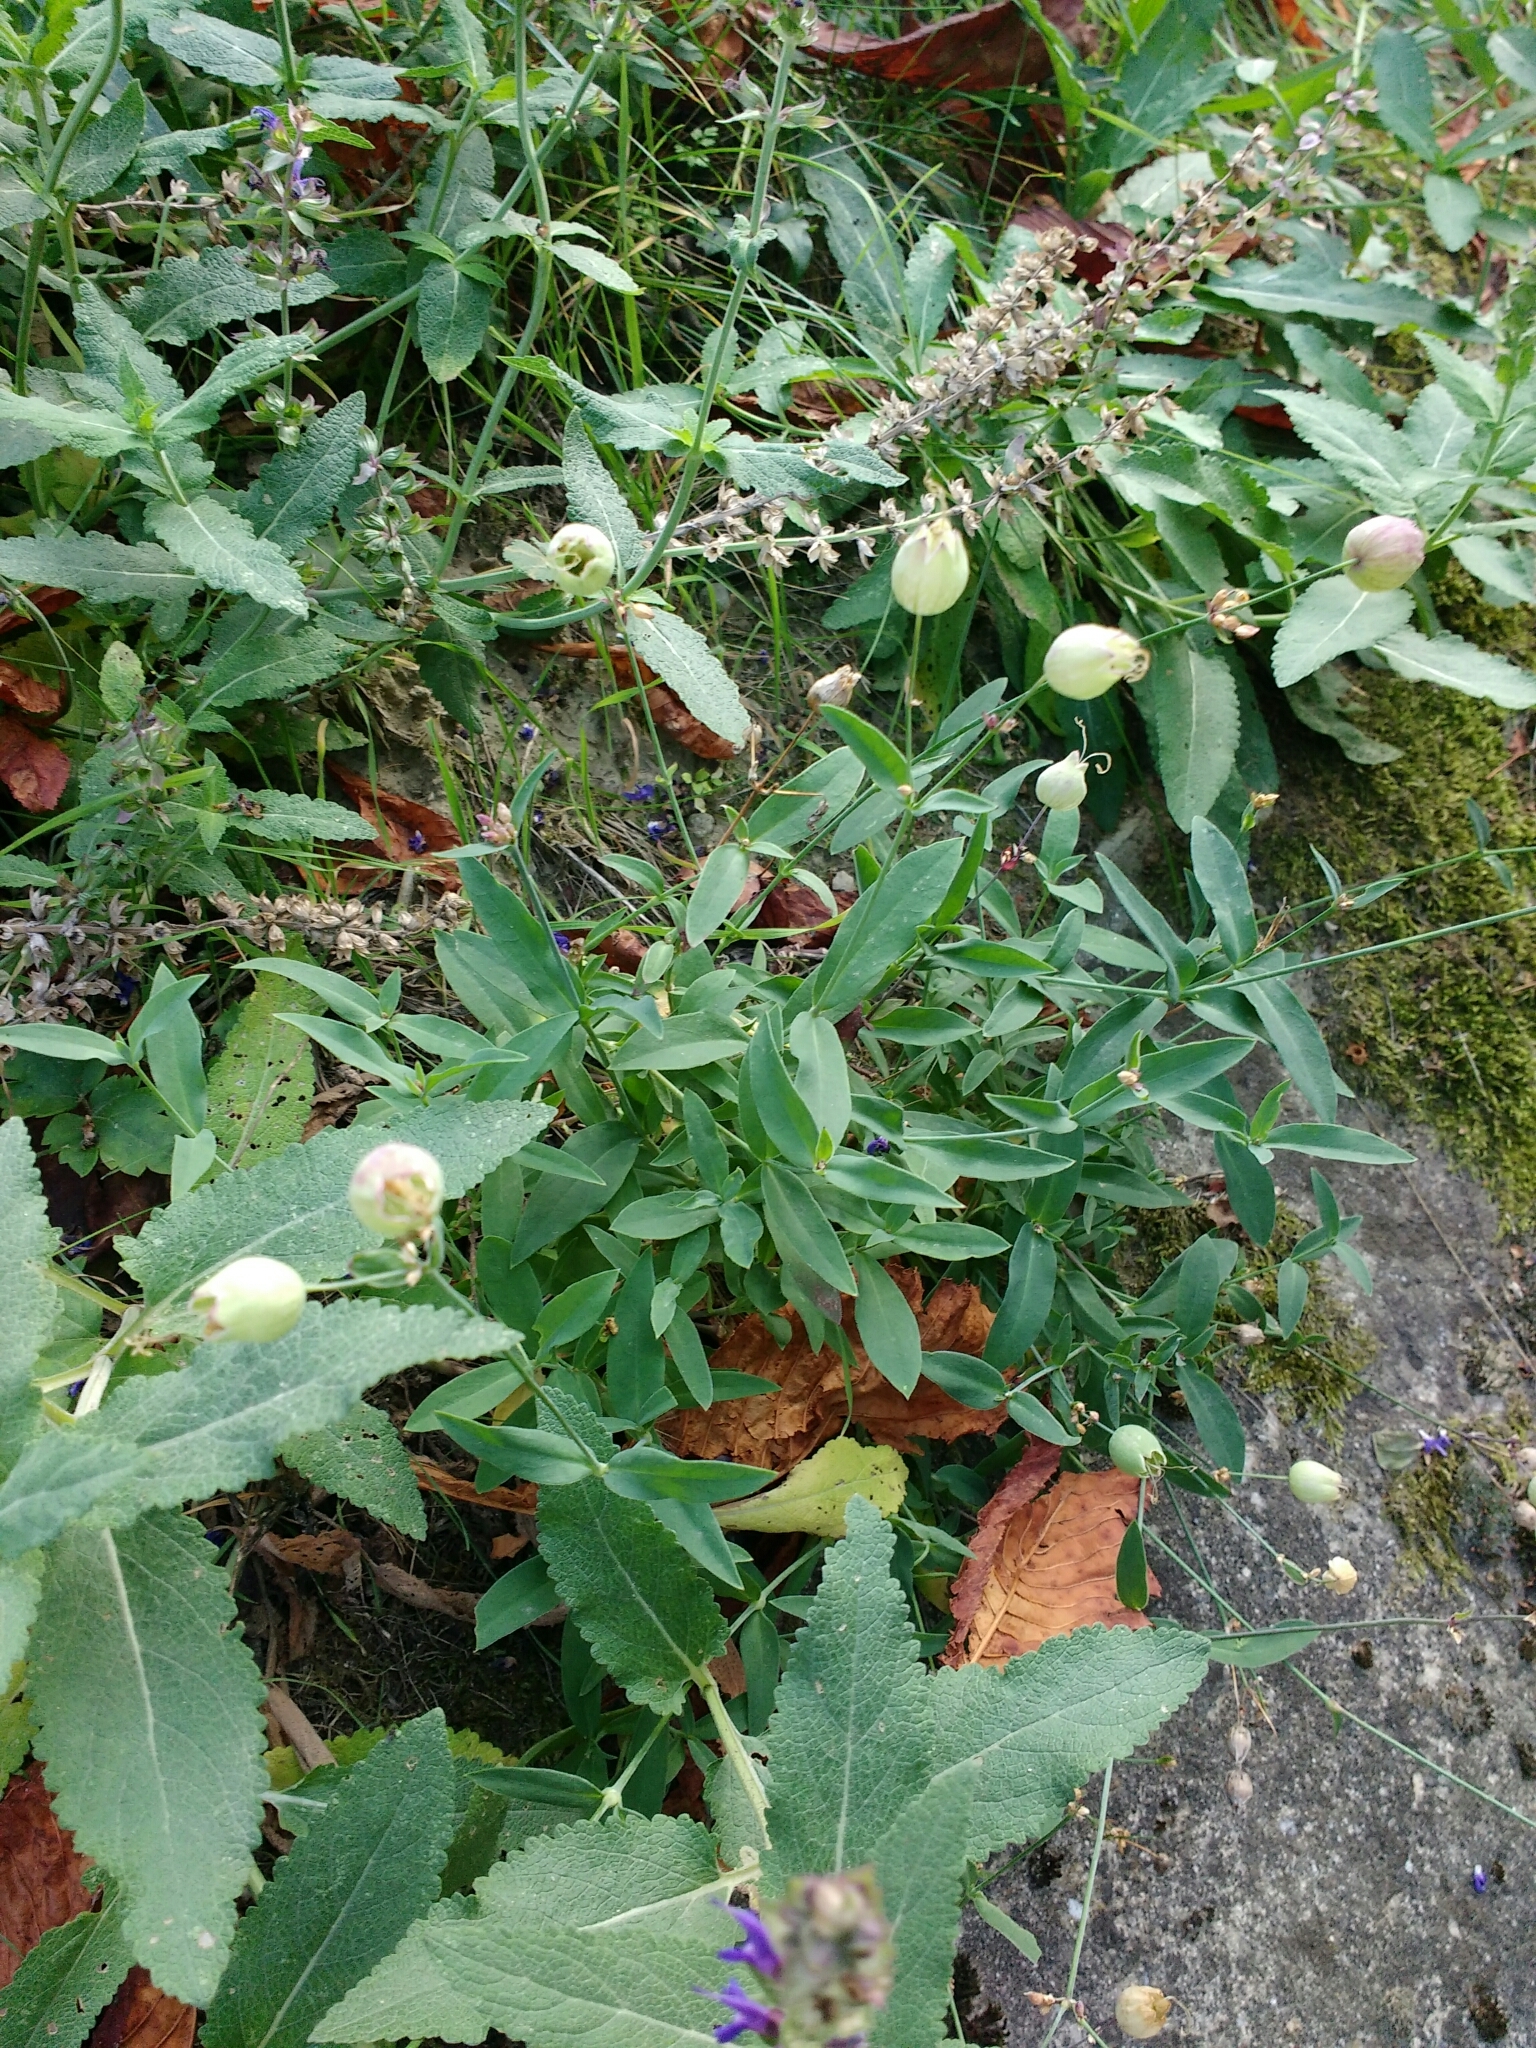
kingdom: Plantae
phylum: Tracheophyta
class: Magnoliopsida
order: Caryophyllales
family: Caryophyllaceae
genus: Silene
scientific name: Silene vulgaris
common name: Bladder campion
